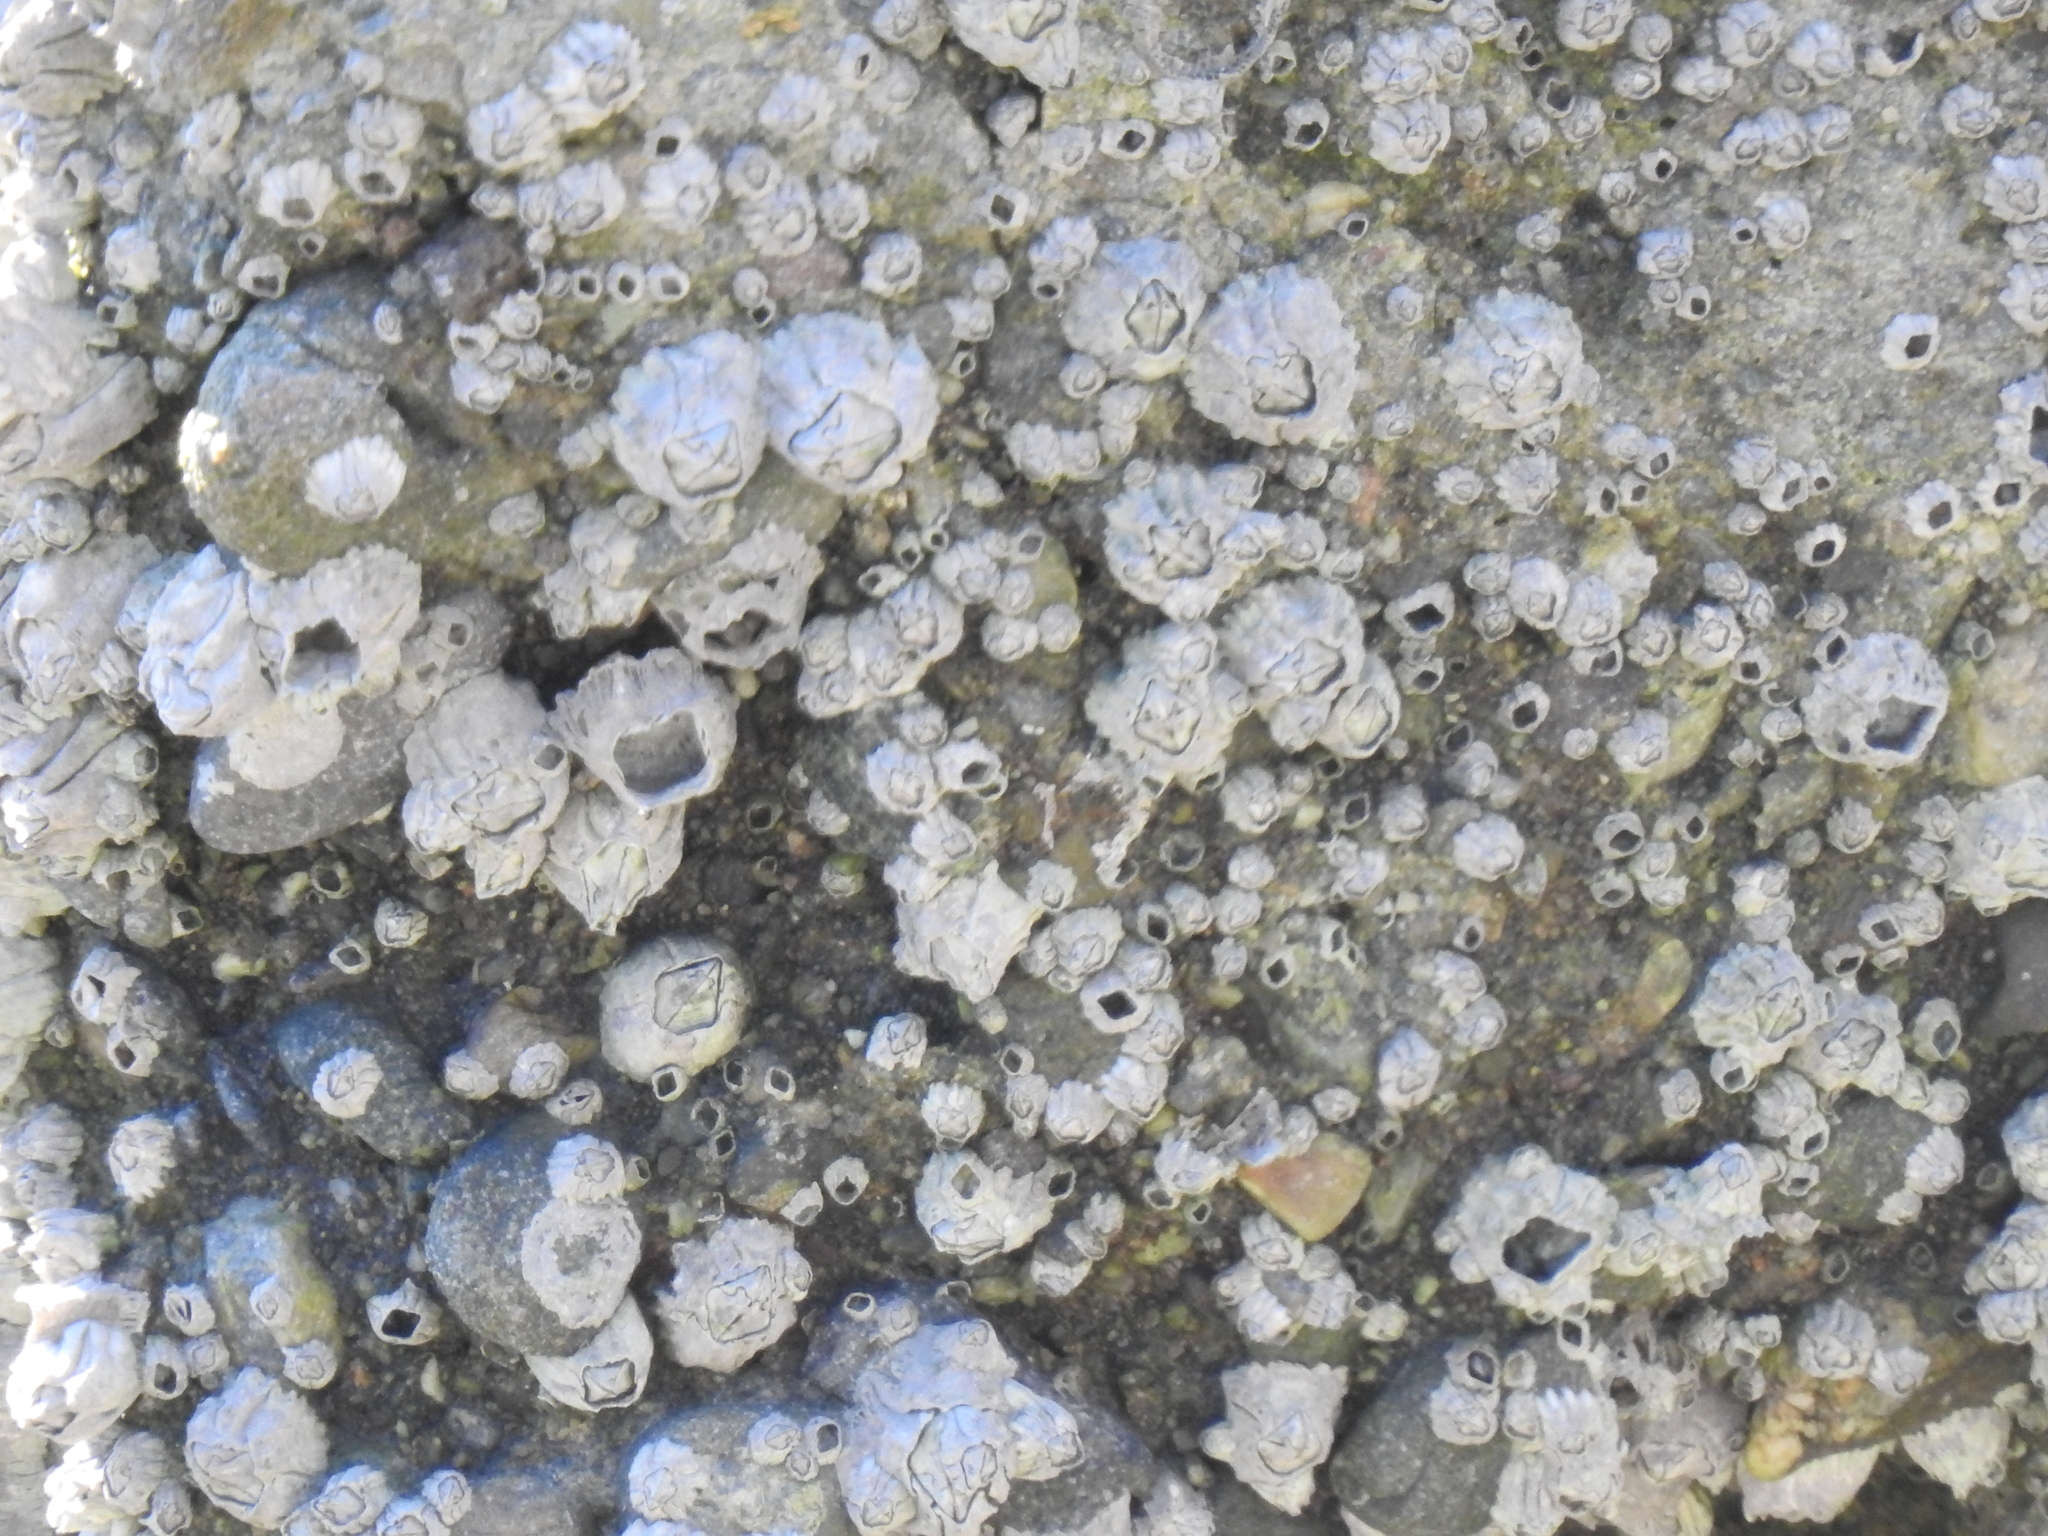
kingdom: Animalia
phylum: Arthropoda
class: Maxillopoda
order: Sessilia
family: Balanidae
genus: Balanus
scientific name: Balanus glandula
